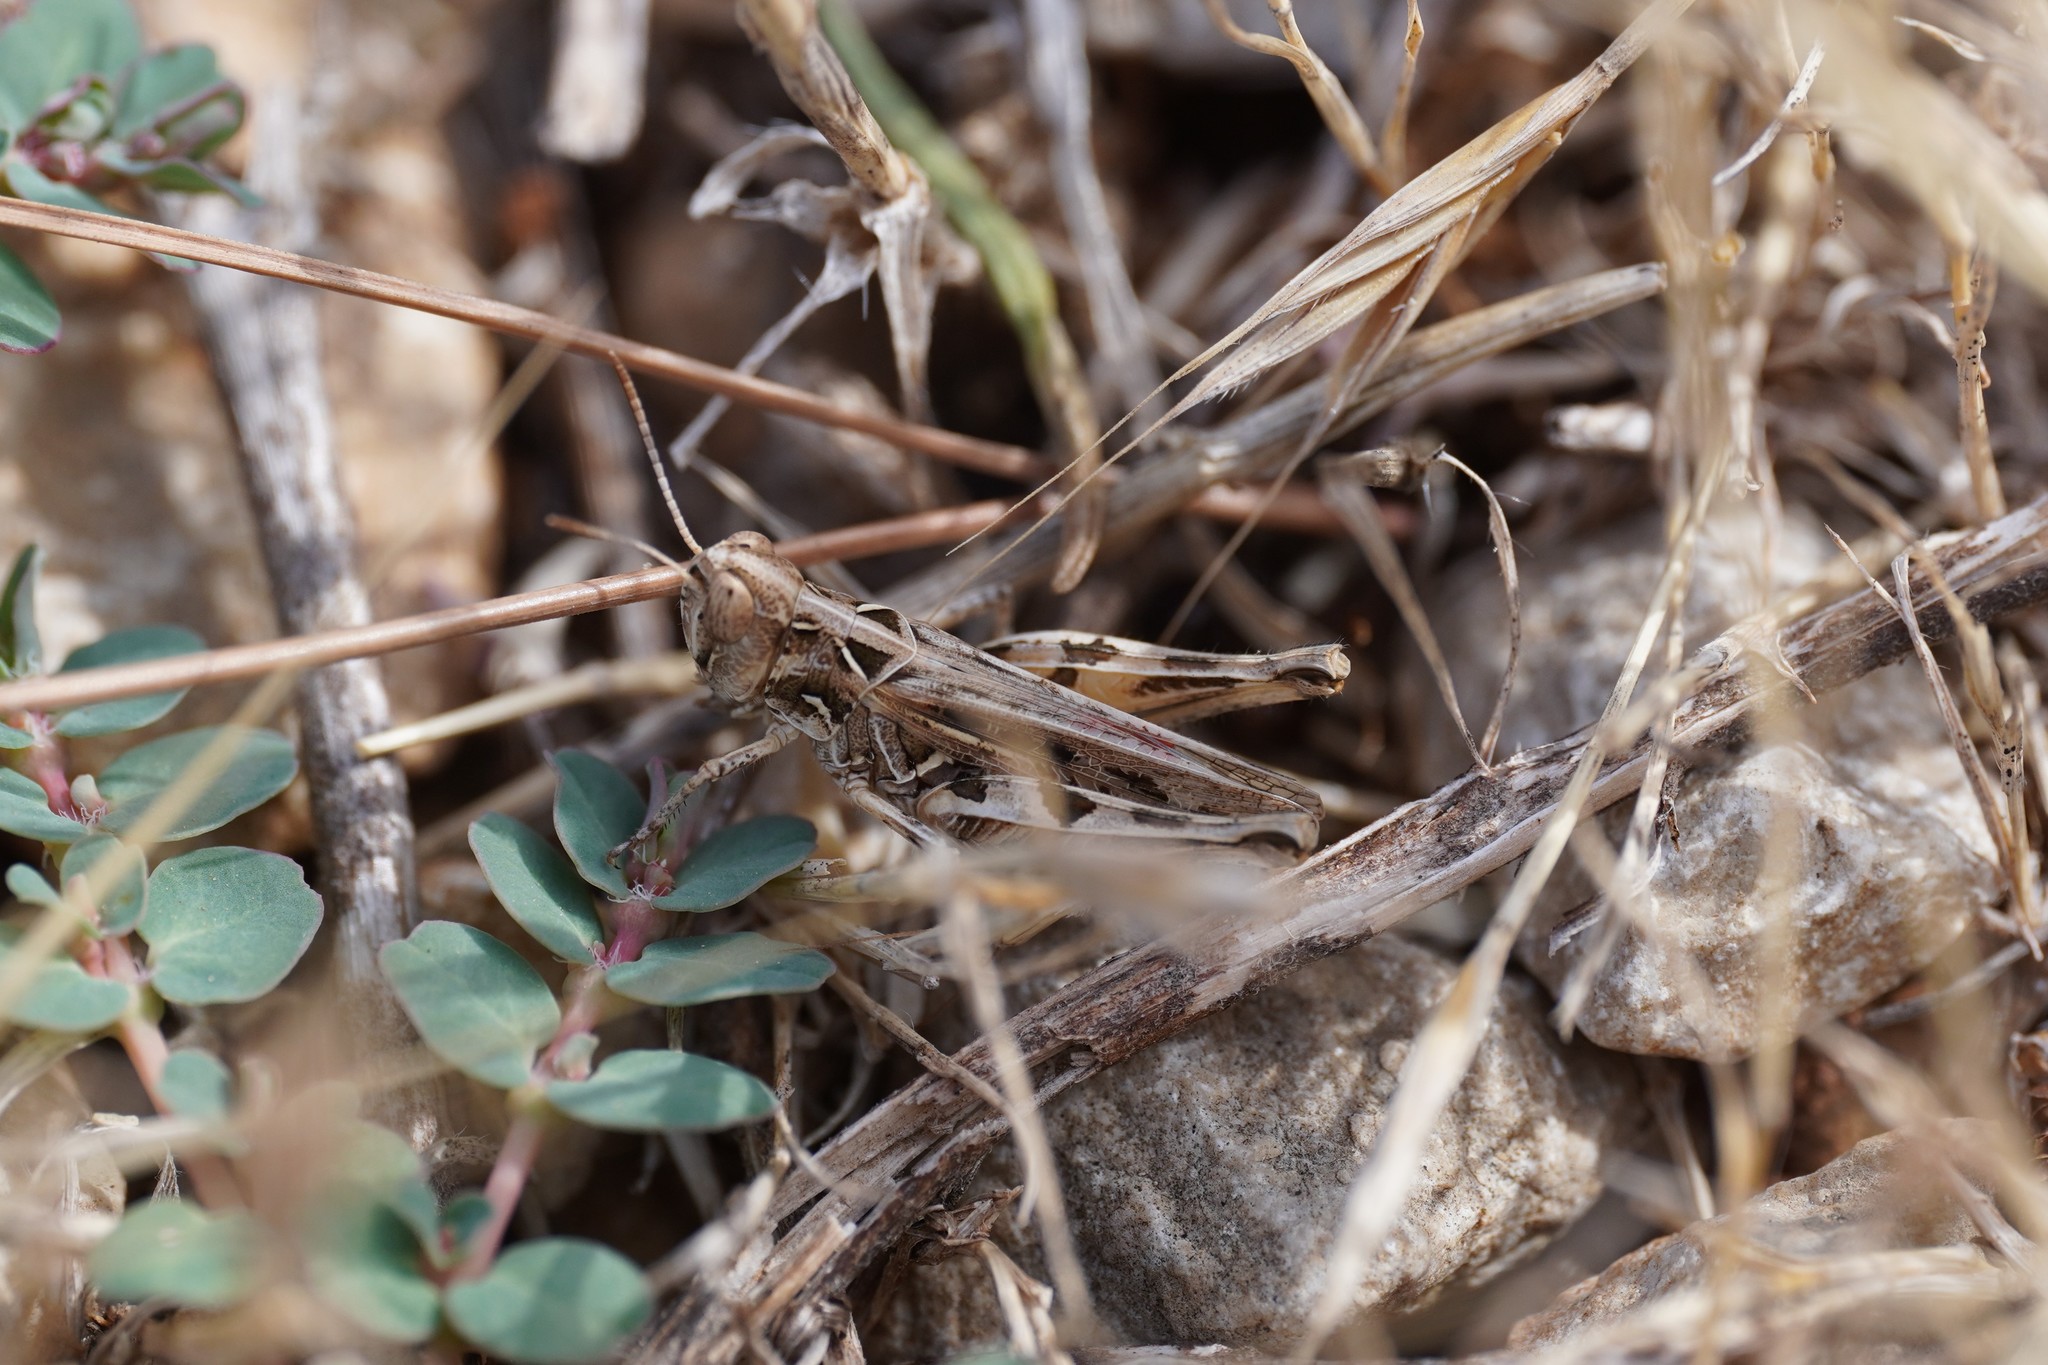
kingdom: Animalia
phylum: Arthropoda
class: Insecta
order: Orthoptera
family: Acrididae
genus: Dociostaurus
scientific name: Dociostaurus jagoi
